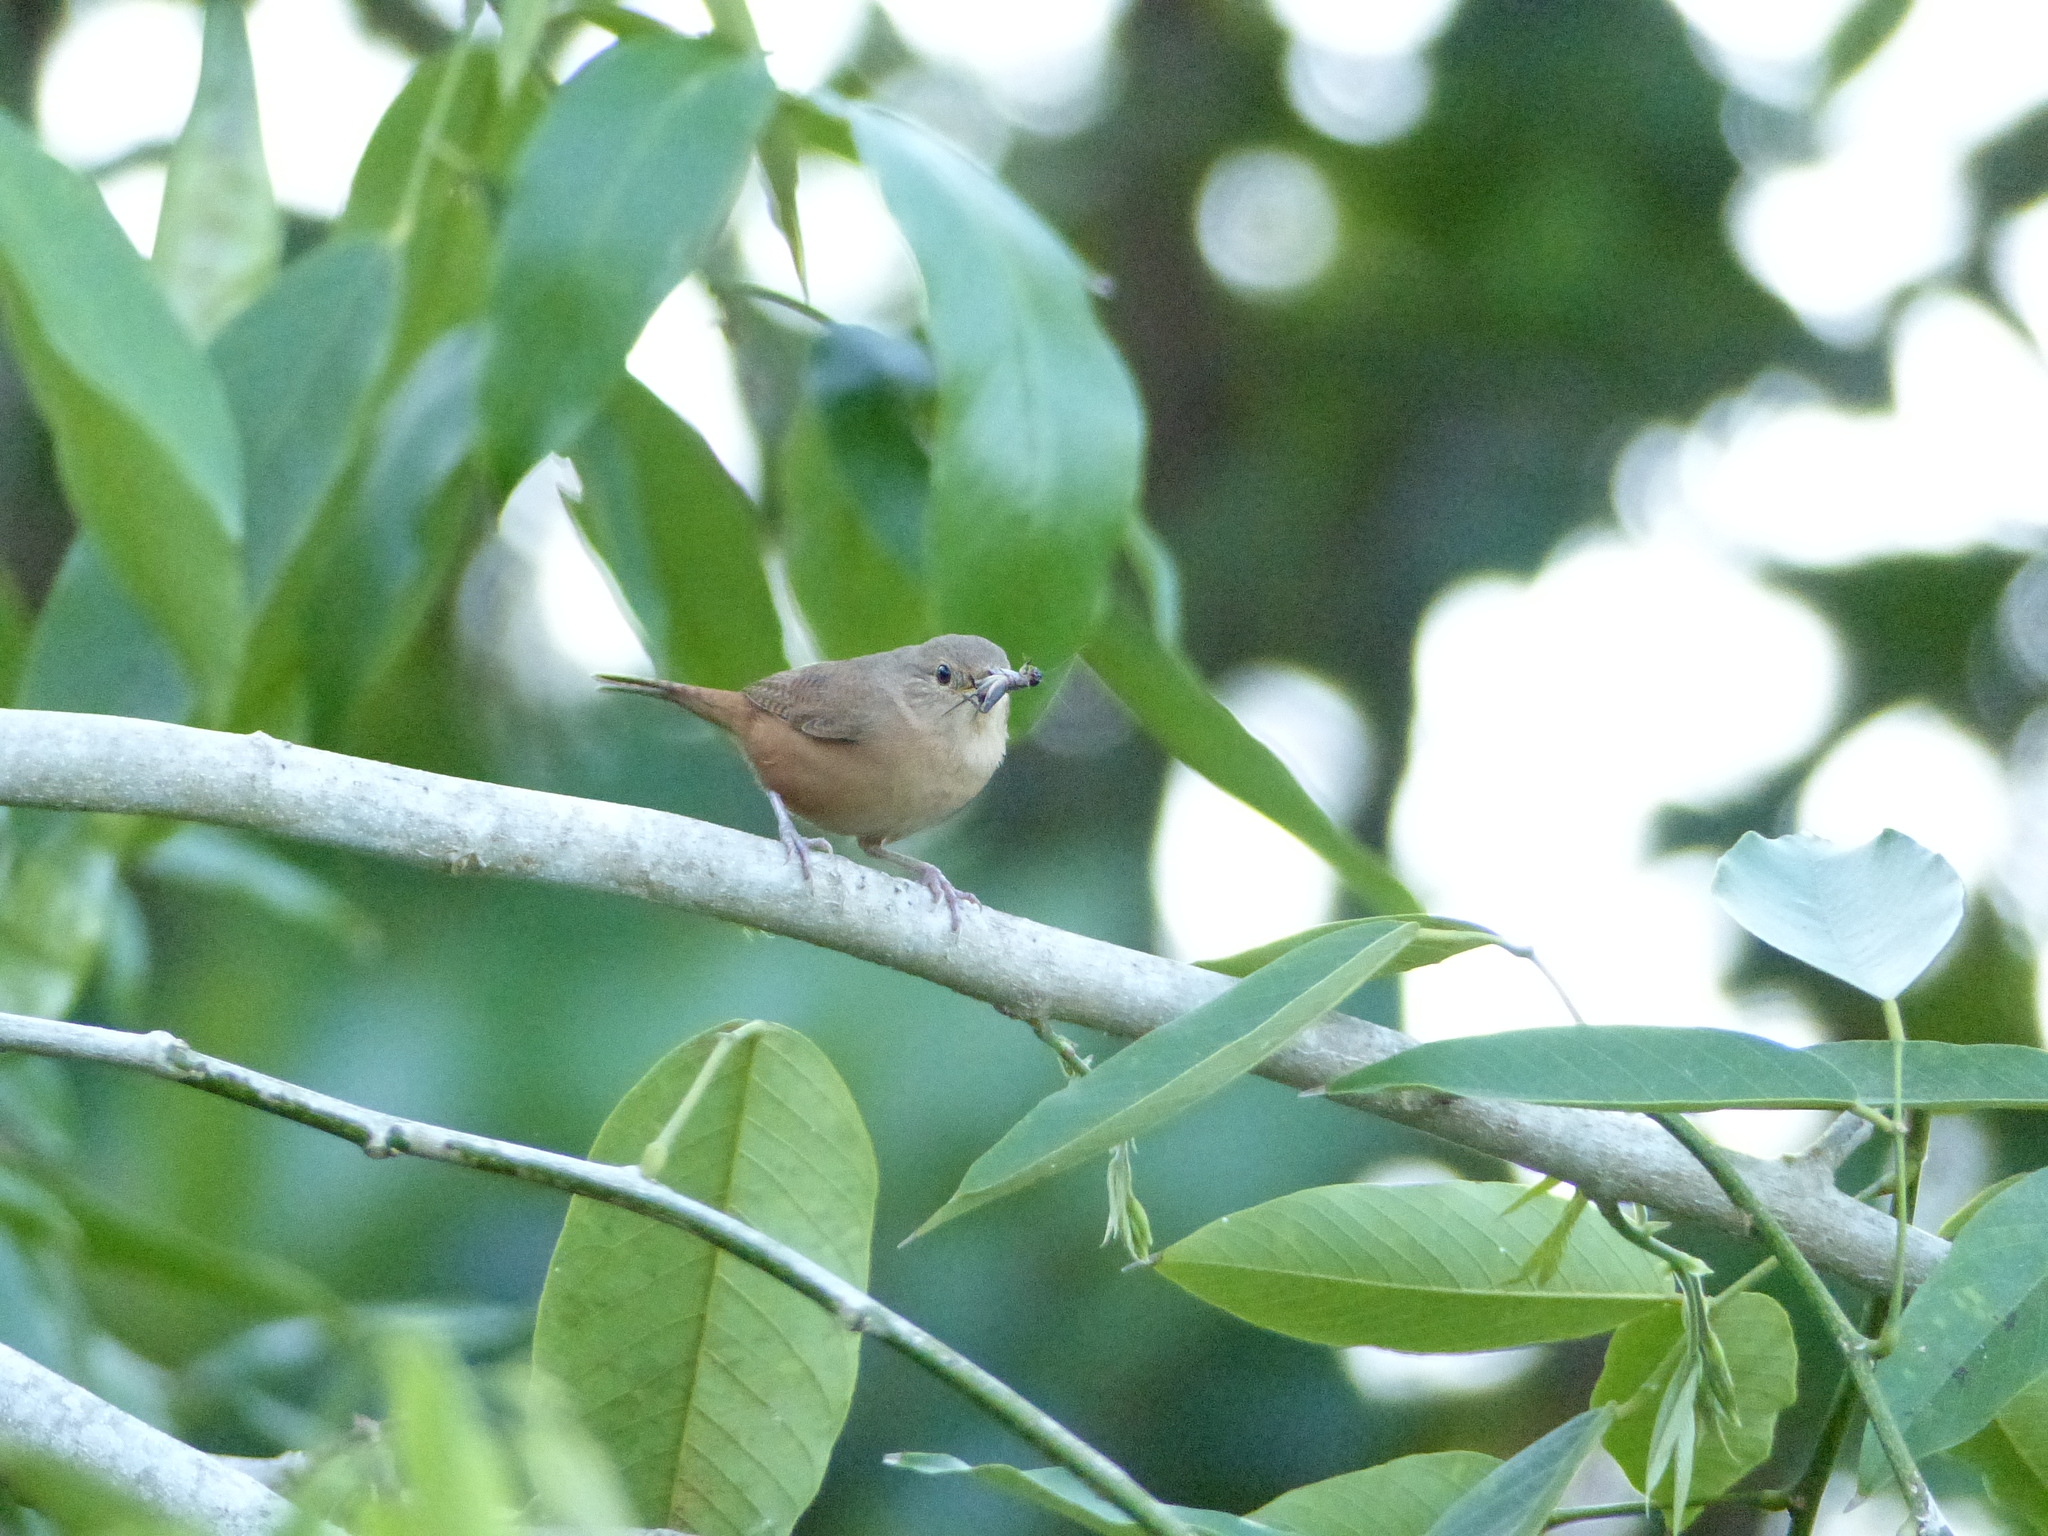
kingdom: Animalia
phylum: Chordata
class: Aves
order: Passeriformes
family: Troglodytidae
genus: Troglodytes
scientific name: Troglodytes aedon
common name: House wren
